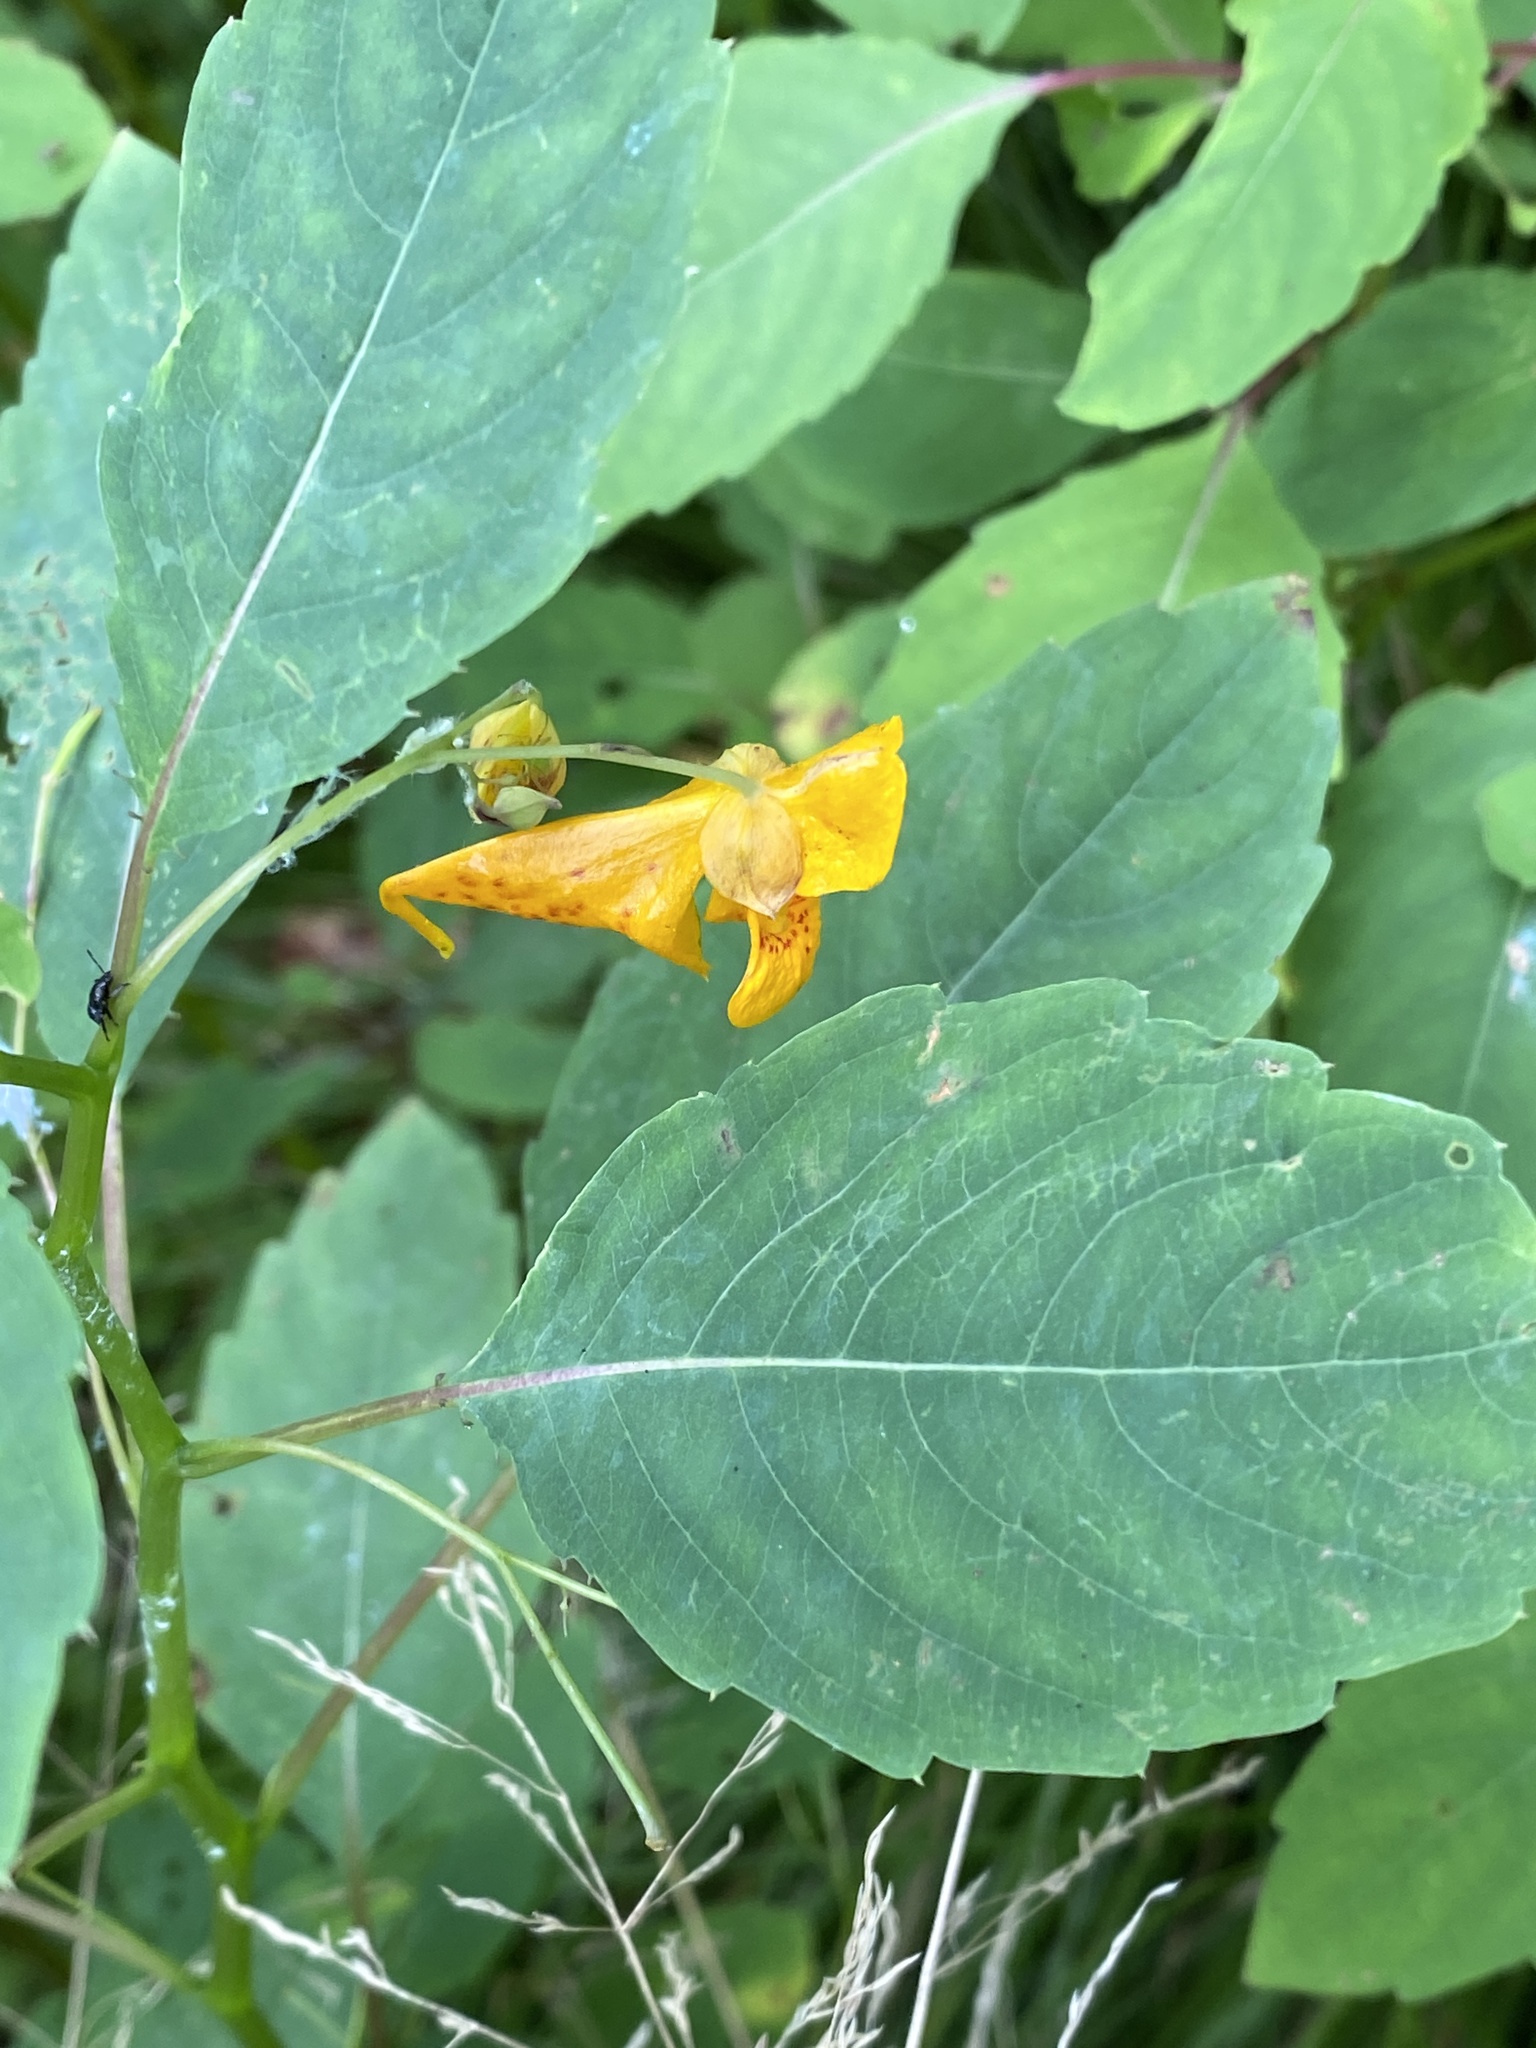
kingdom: Plantae
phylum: Tracheophyta
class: Magnoliopsida
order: Ericales
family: Balsaminaceae
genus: Impatiens
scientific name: Impatiens capensis
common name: Orange balsam
